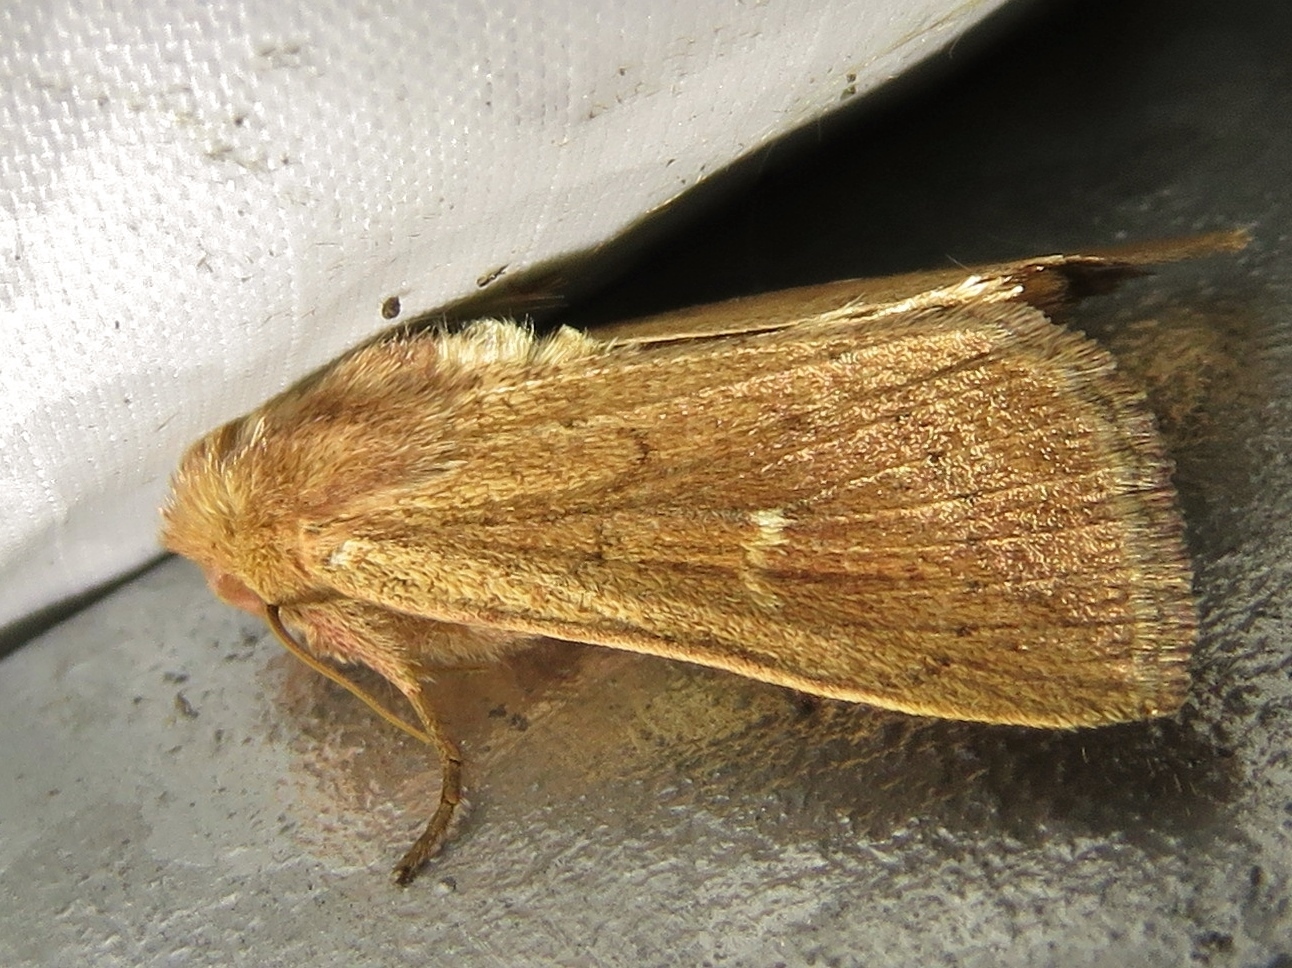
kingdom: Animalia
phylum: Arthropoda
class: Insecta
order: Lepidoptera
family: Noctuidae
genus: Mythimna
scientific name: Mythimna ferrago
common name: Clay
